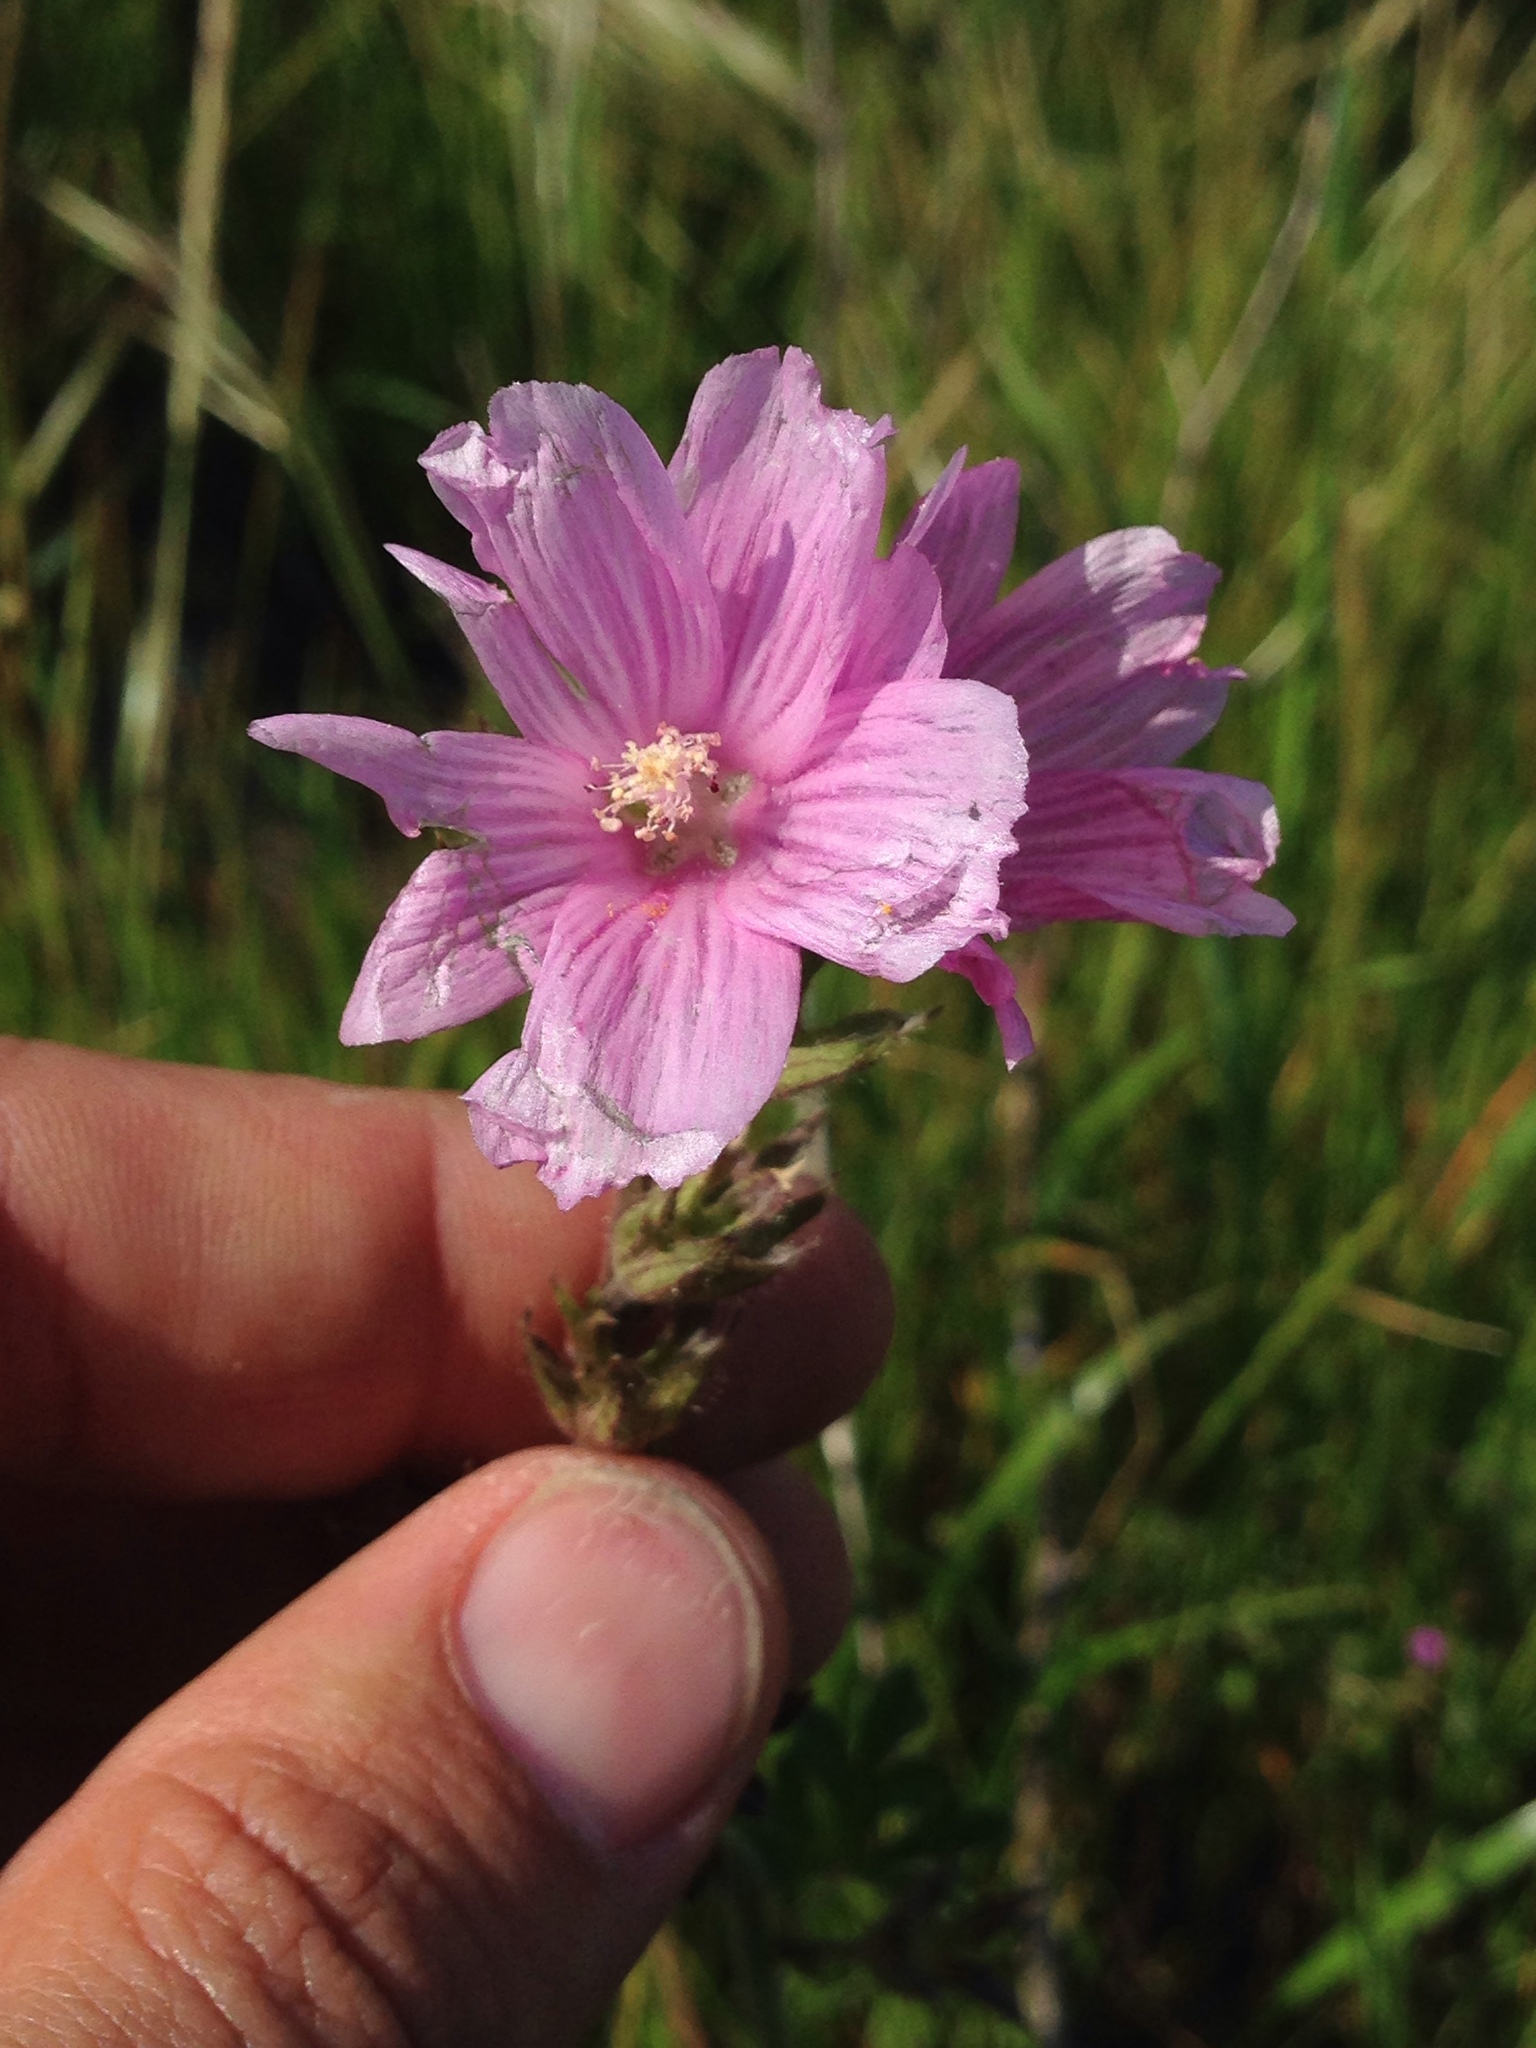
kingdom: Plantae
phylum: Tracheophyta
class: Magnoliopsida
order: Malvales
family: Malvaceae
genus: Sidalcea
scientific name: Sidalcea malviflora
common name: Greek mallow
